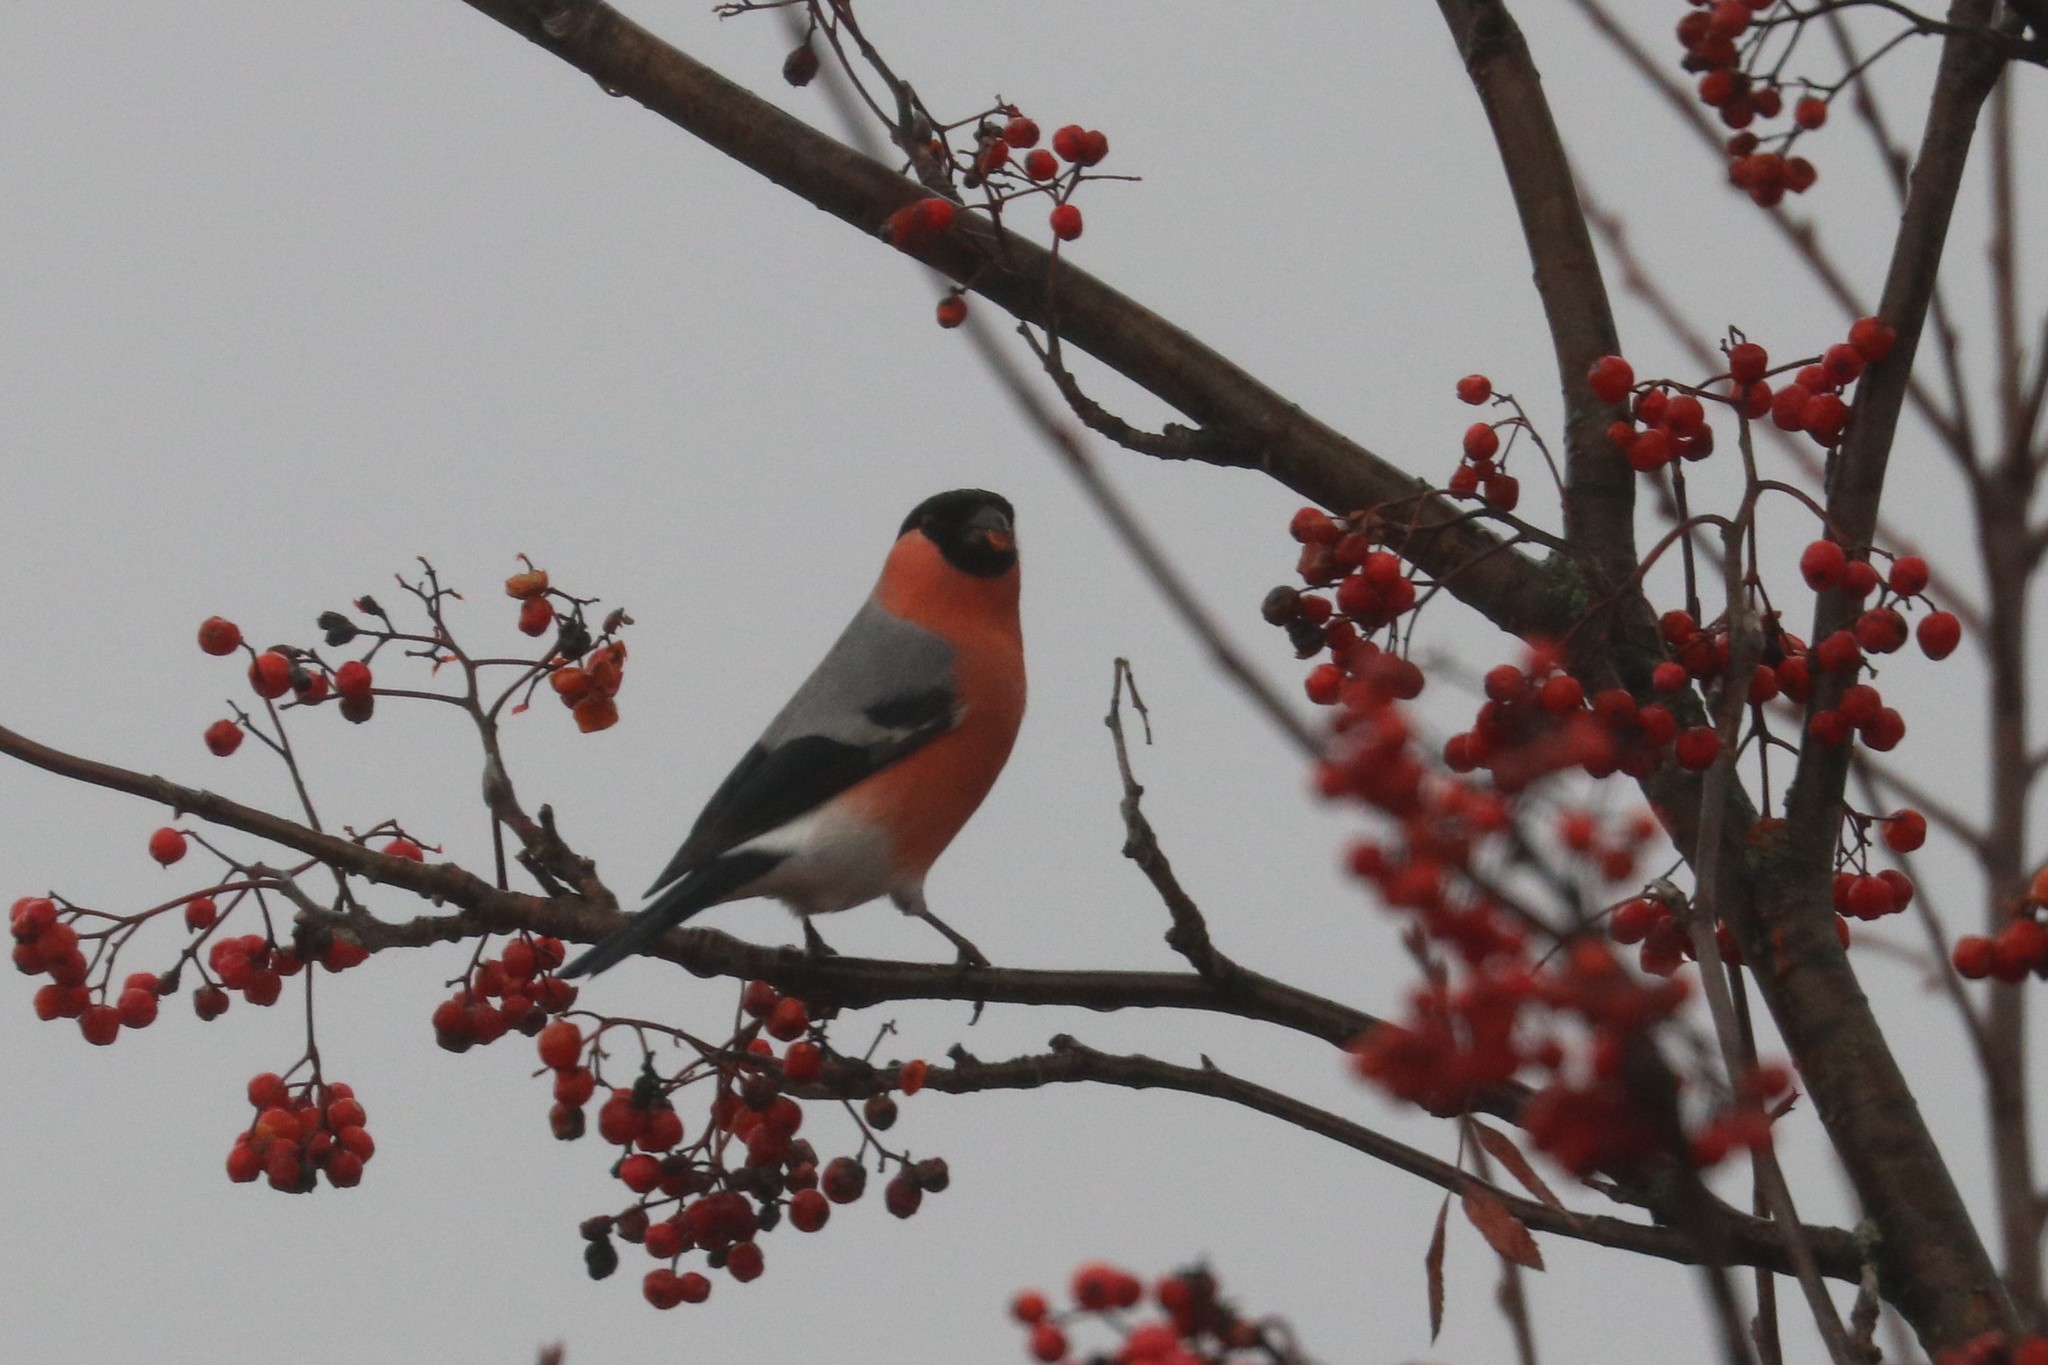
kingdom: Animalia
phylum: Chordata
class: Aves
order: Passeriformes
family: Fringillidae
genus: Pyrrhula
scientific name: Pyrrhula pyrrhula
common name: Eurasian bullfinch
